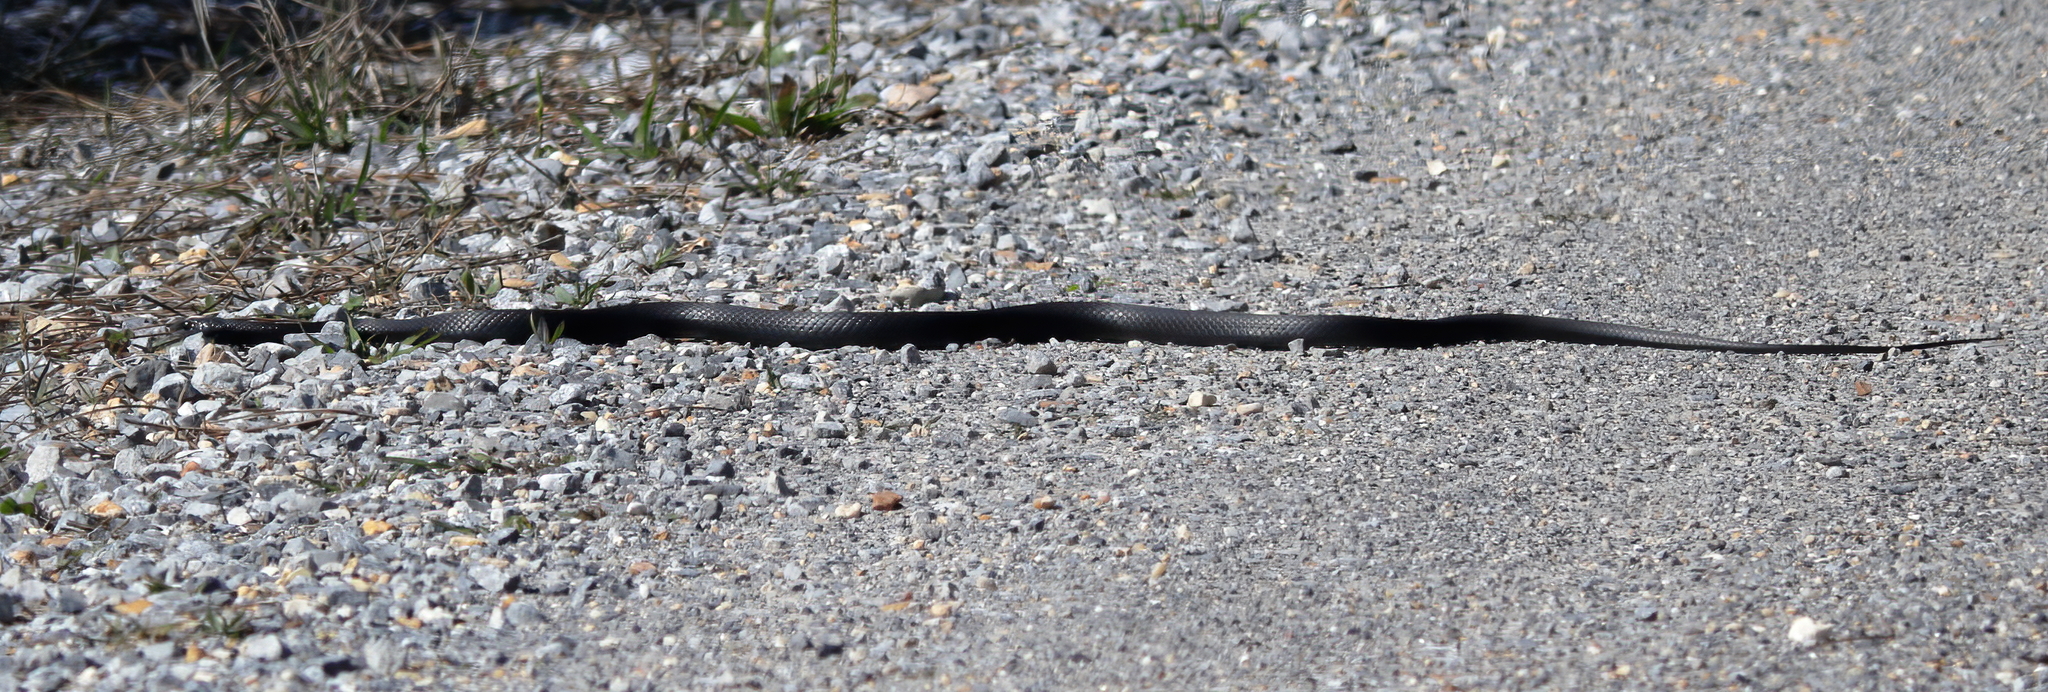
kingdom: Animalia
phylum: Chordata
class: Squamata
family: Colubridae
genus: Coluber
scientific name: Coluber constrictor
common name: Eastern racer
